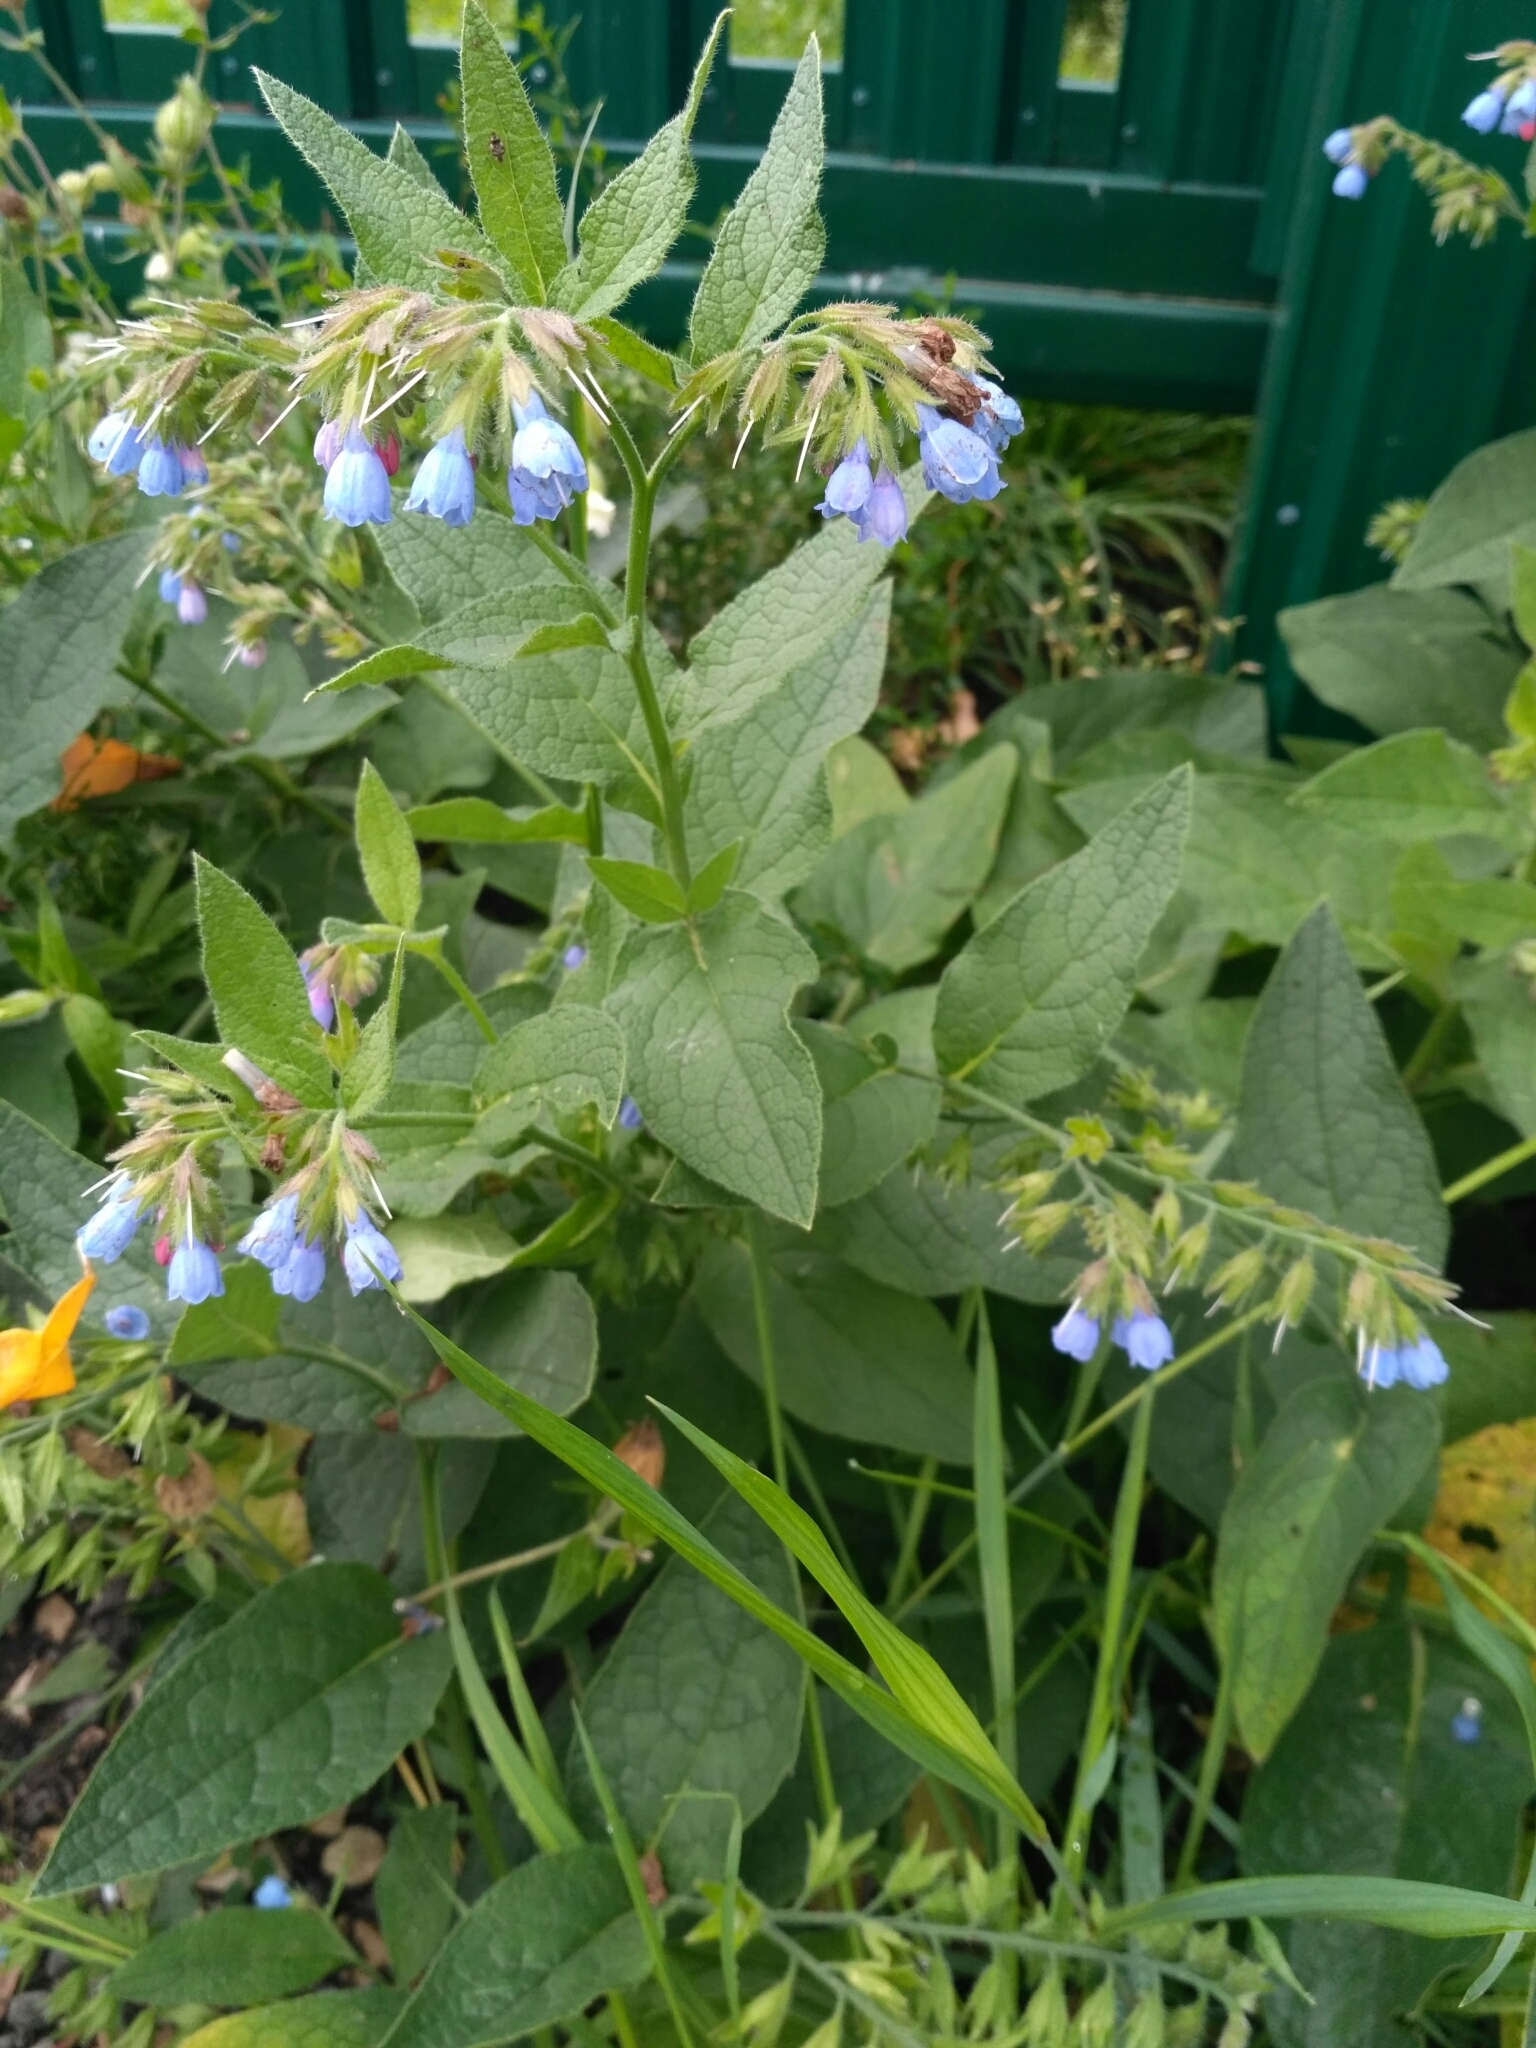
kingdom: Plantae
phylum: Tracheophyta
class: Magnoliopsida
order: Boraginales
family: Boraginaceae
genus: Symphytum
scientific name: Symphytum caucasicum
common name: Caucasian comfrey
